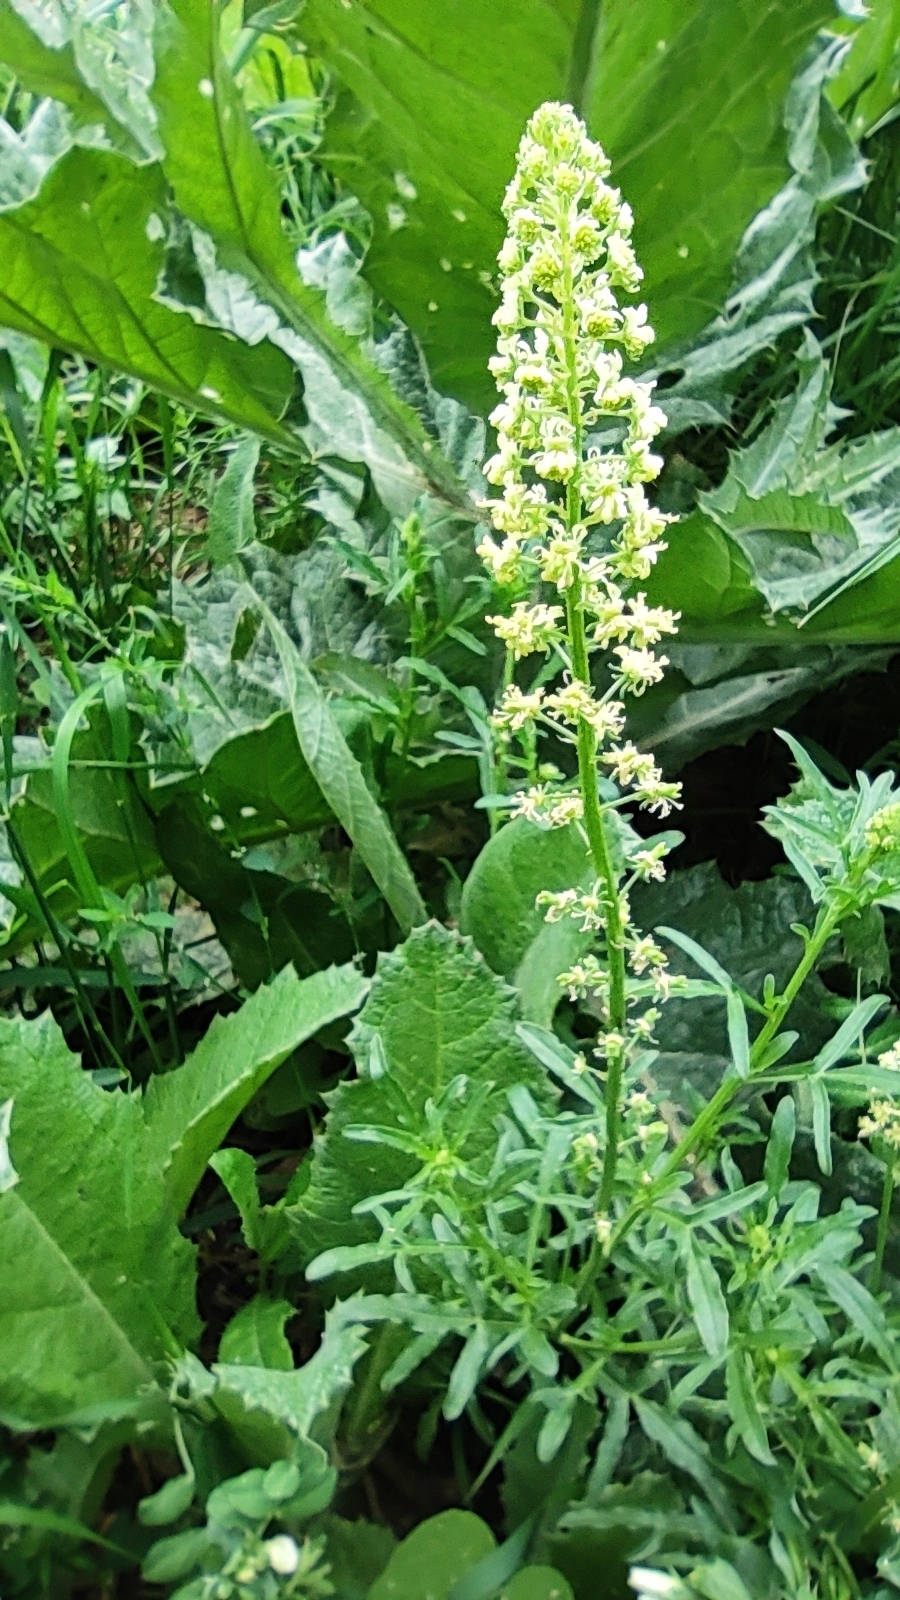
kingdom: Plantae
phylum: Tracheophyta
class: Magnoliopsida
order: Brassicales
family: Resedaceae
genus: Reseda
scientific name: Reseda lutea
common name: Wild mignonette
